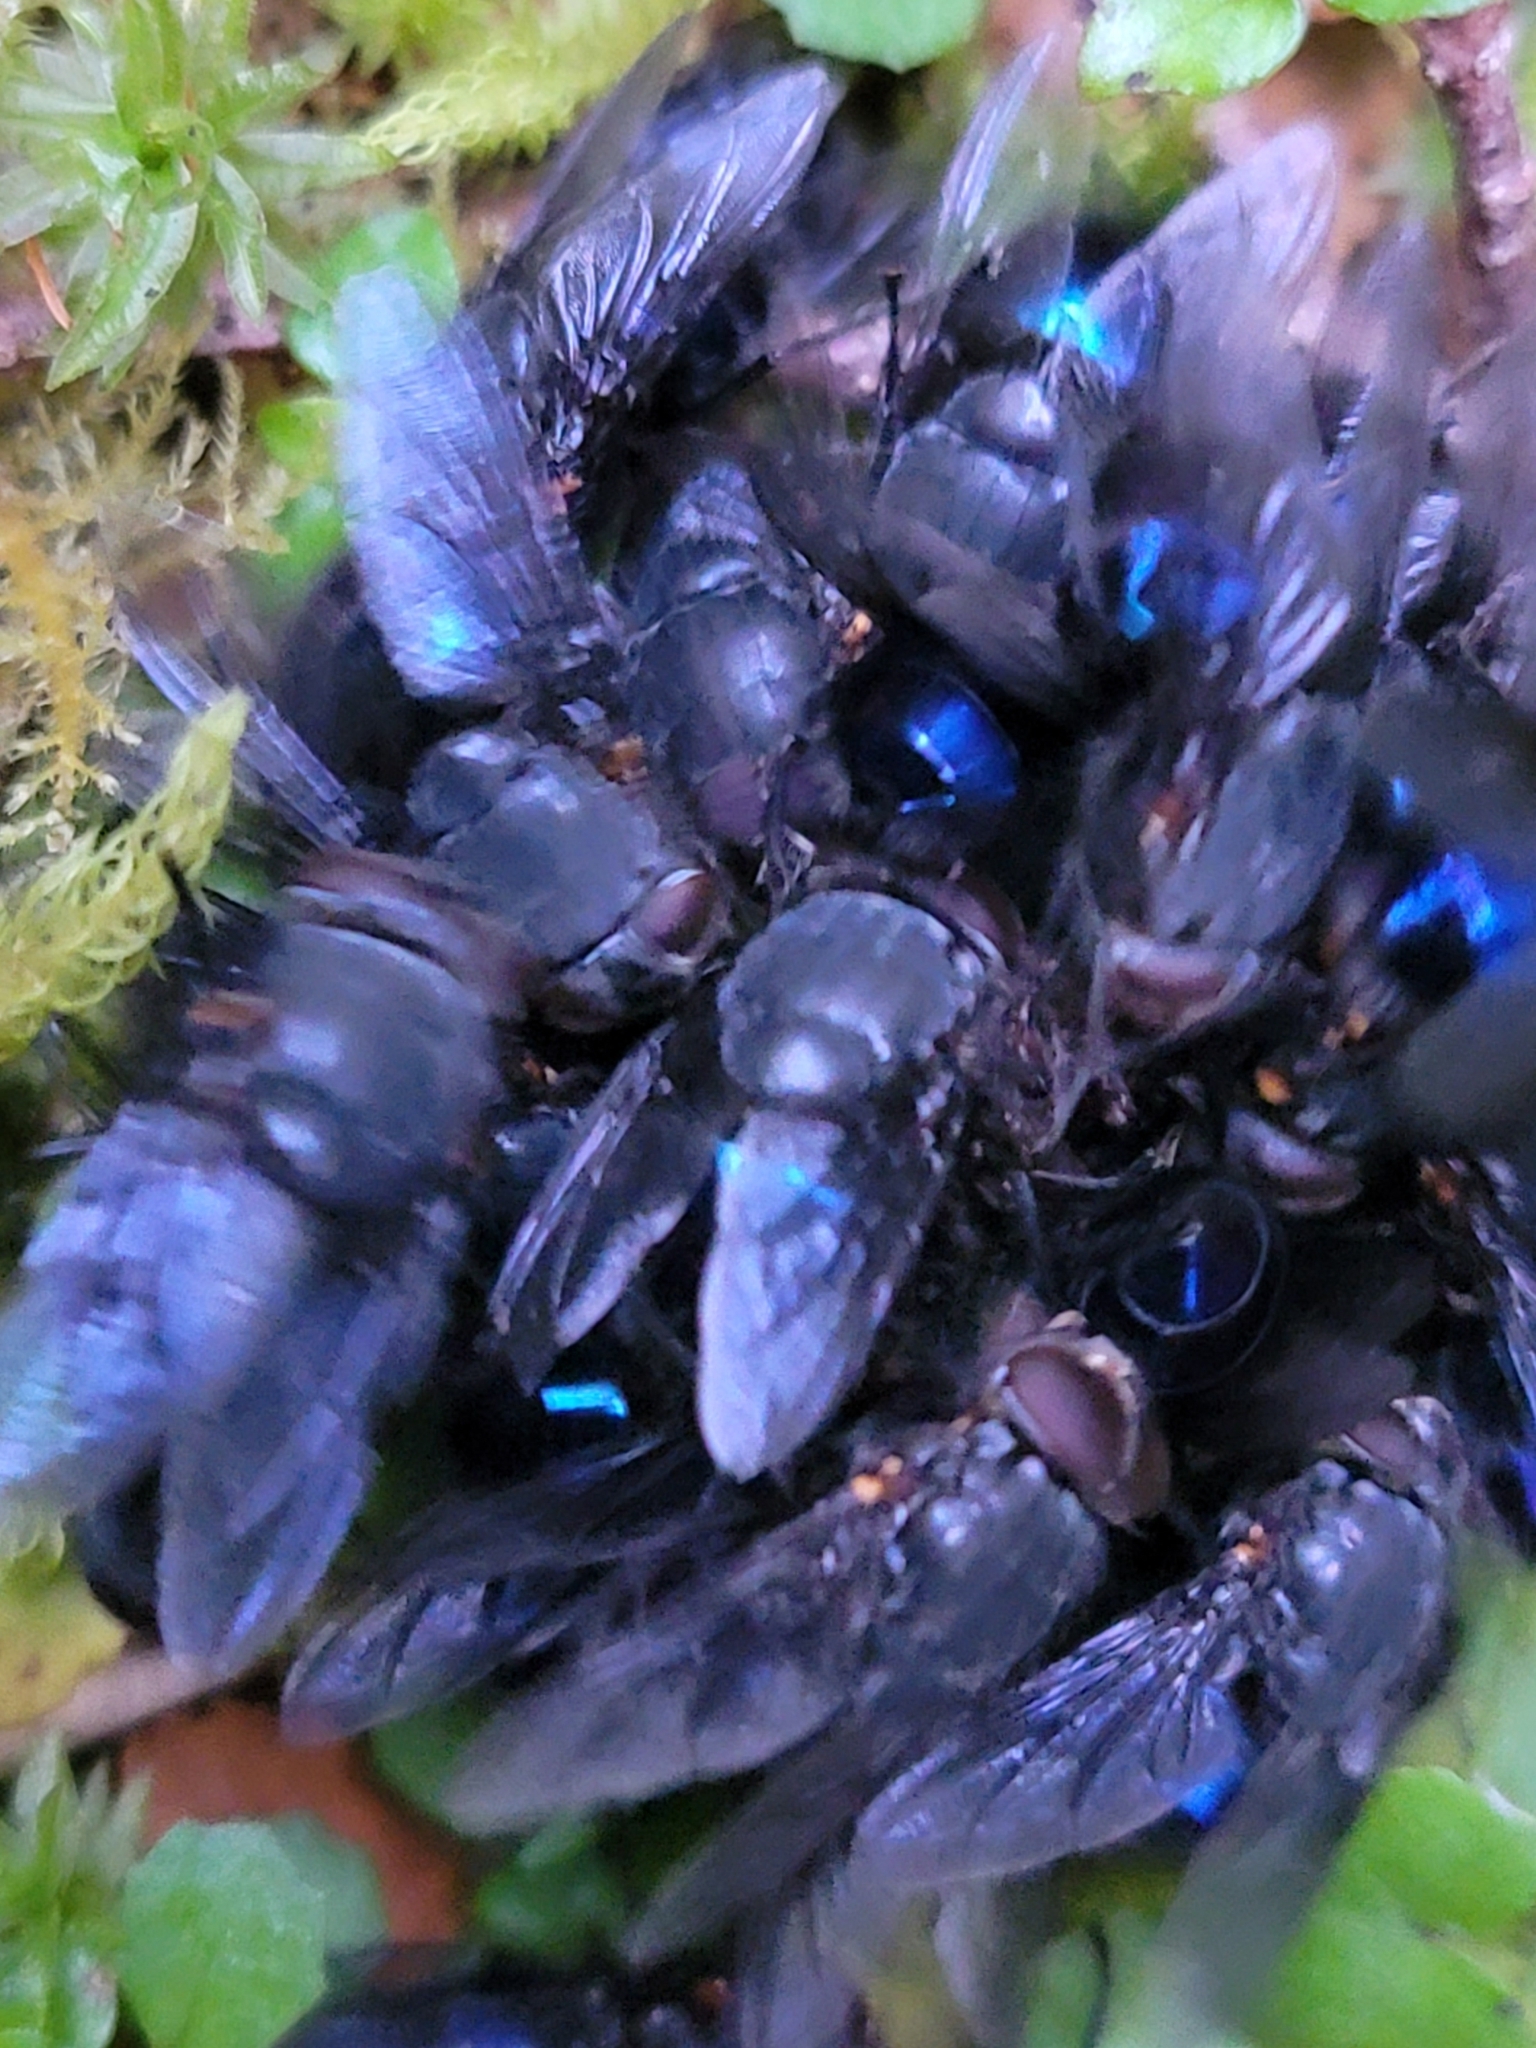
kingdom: Animalia
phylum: Arthropoda
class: Insecta
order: Diptera
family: Calliphoridae
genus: Calliphora
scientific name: Calliphora quadrimaculata
